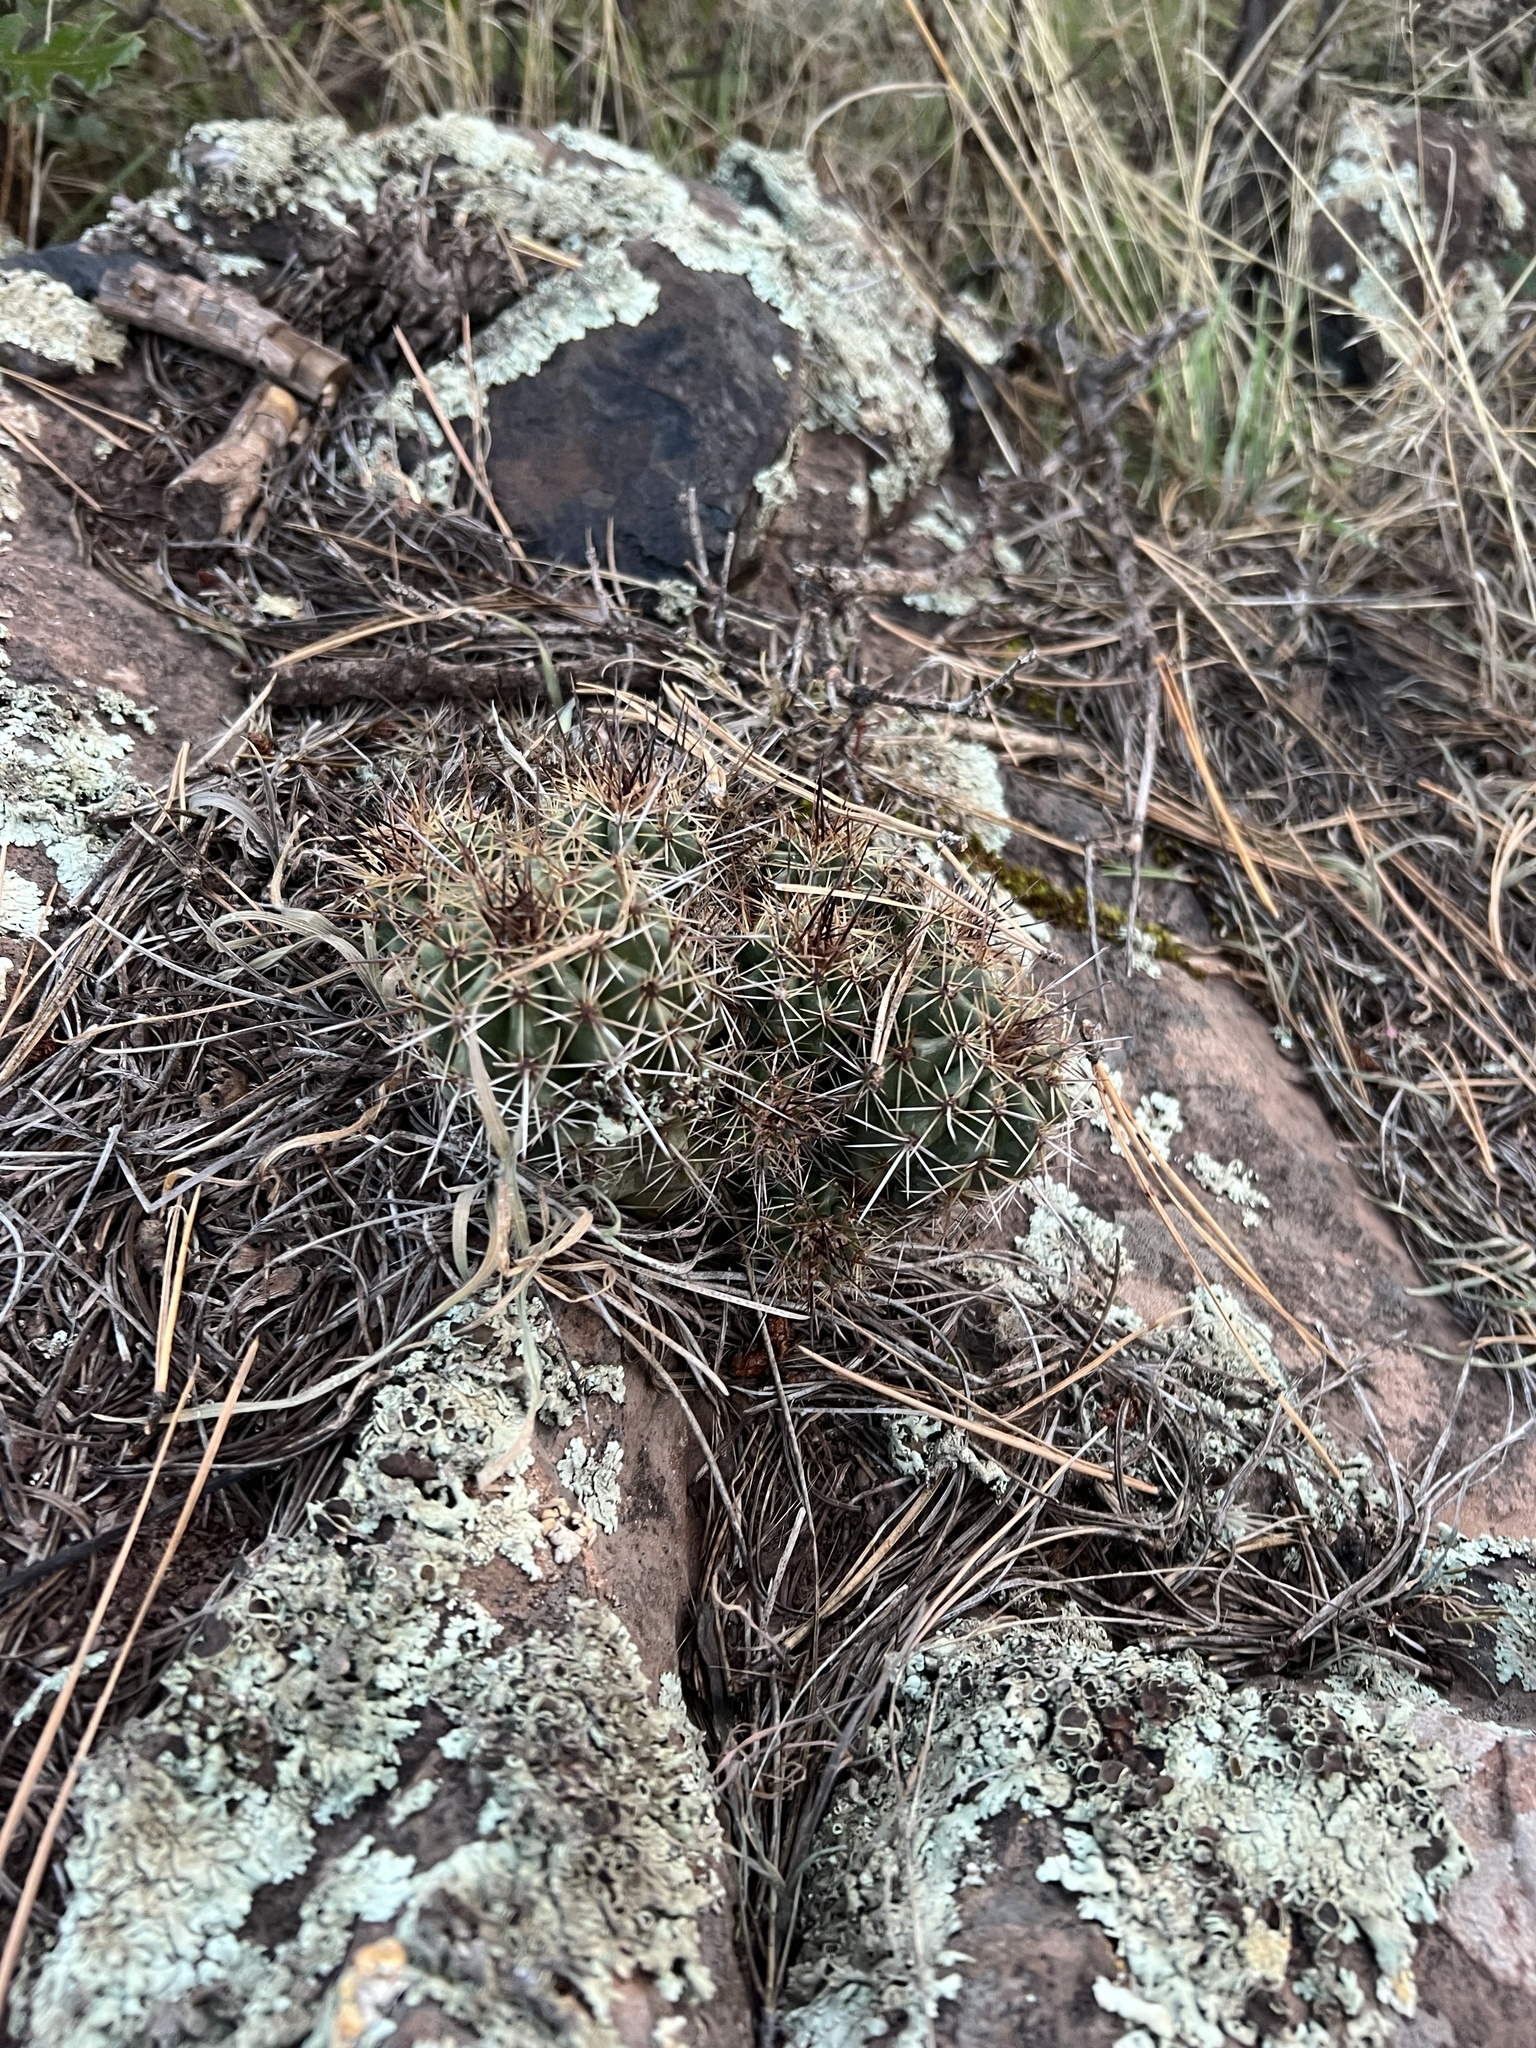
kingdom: Plantae
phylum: Tracheophyta
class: Magnoliopsida
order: Caryophyllales
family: Cactaceae
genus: Echinocereus
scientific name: Echinocereus bakeri
